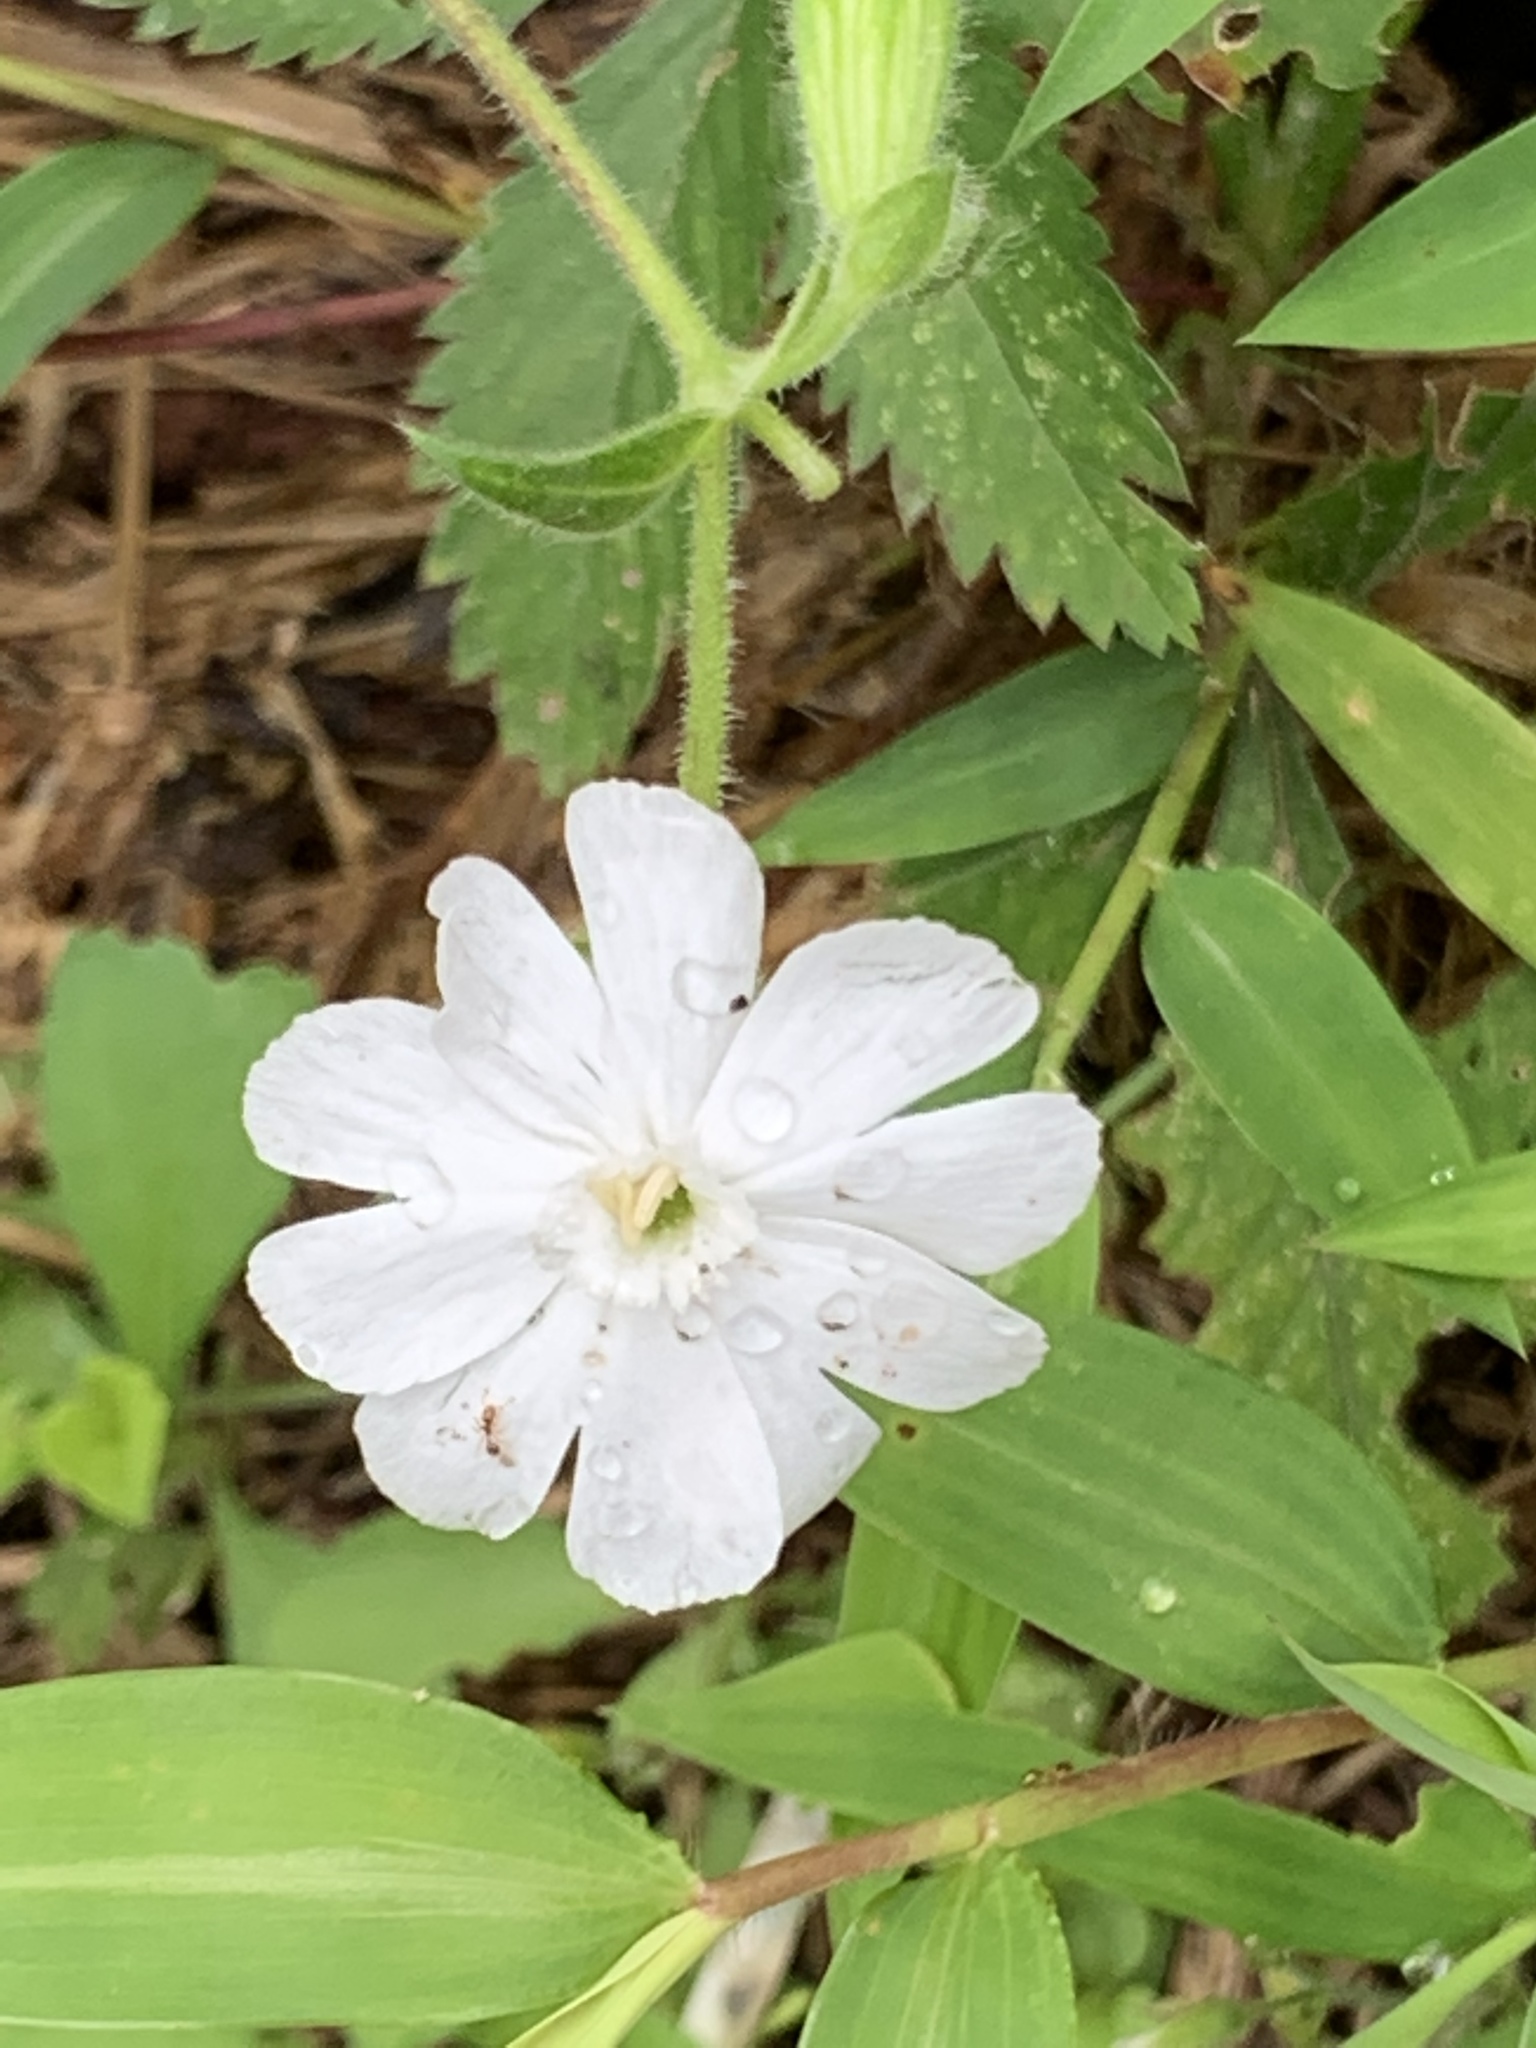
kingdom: Plantae
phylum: Tracheophyta
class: Magnoliopsida
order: Caryophyllales
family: Caryophyllaceae
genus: Silene
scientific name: Silene latifolia
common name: White campion
